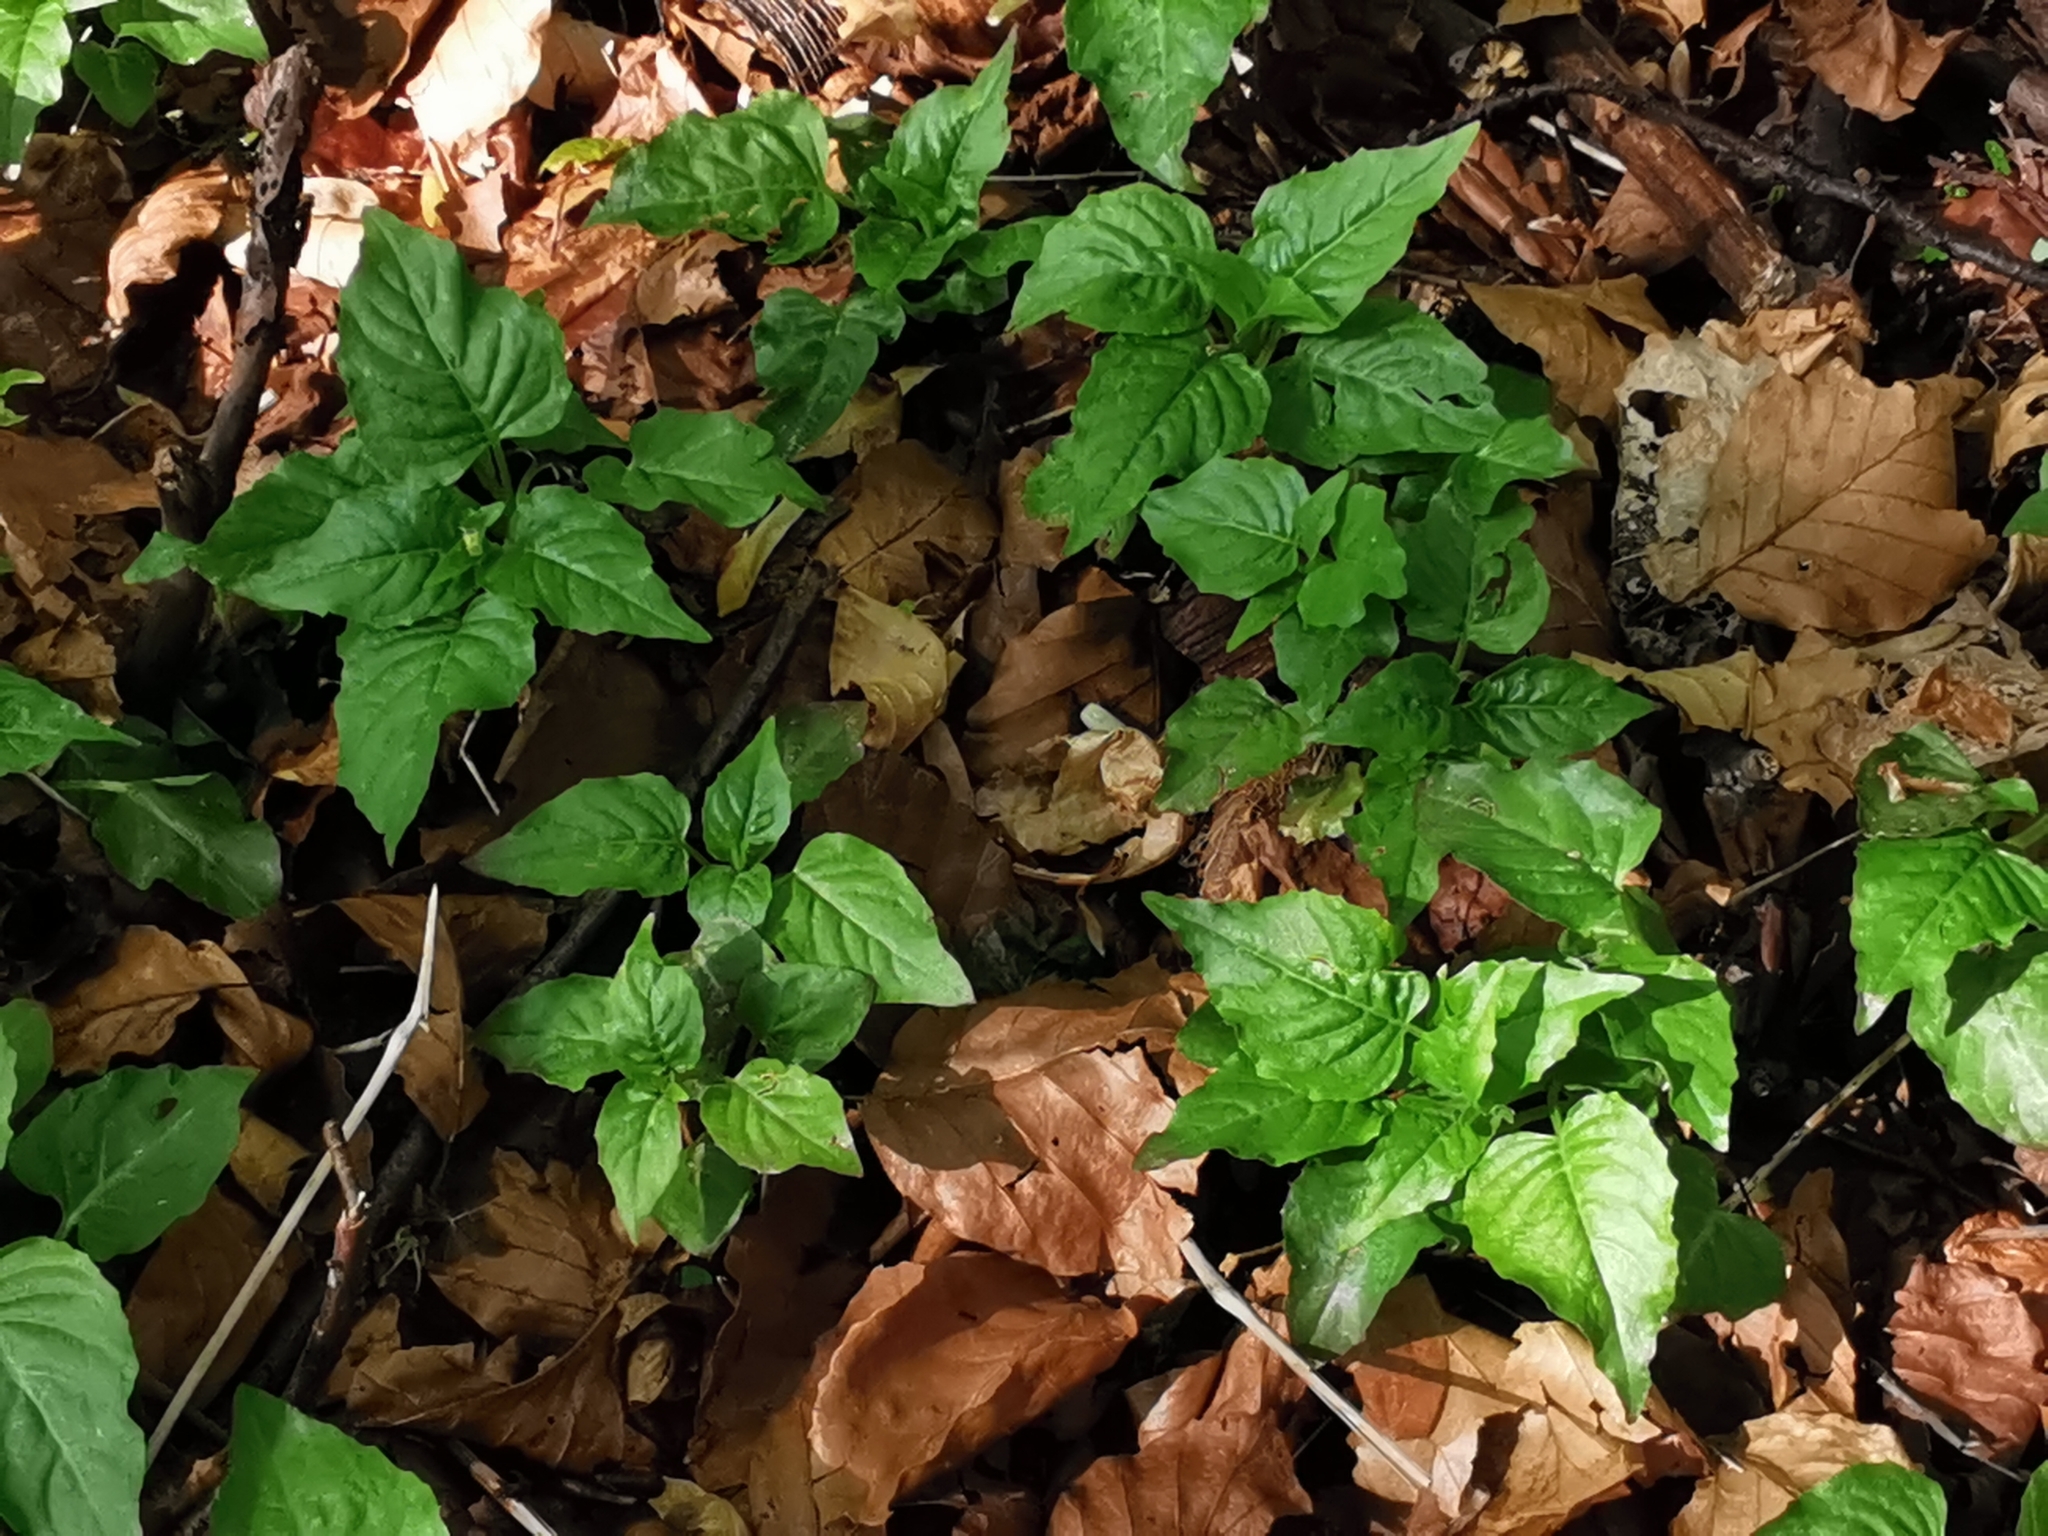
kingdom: Plantae
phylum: Tracheophyta
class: Magnoliopsida
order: Myrtales
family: Onagraceae
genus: Circaea
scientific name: Circaea lutetiana
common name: Enchanter's-nightshade
